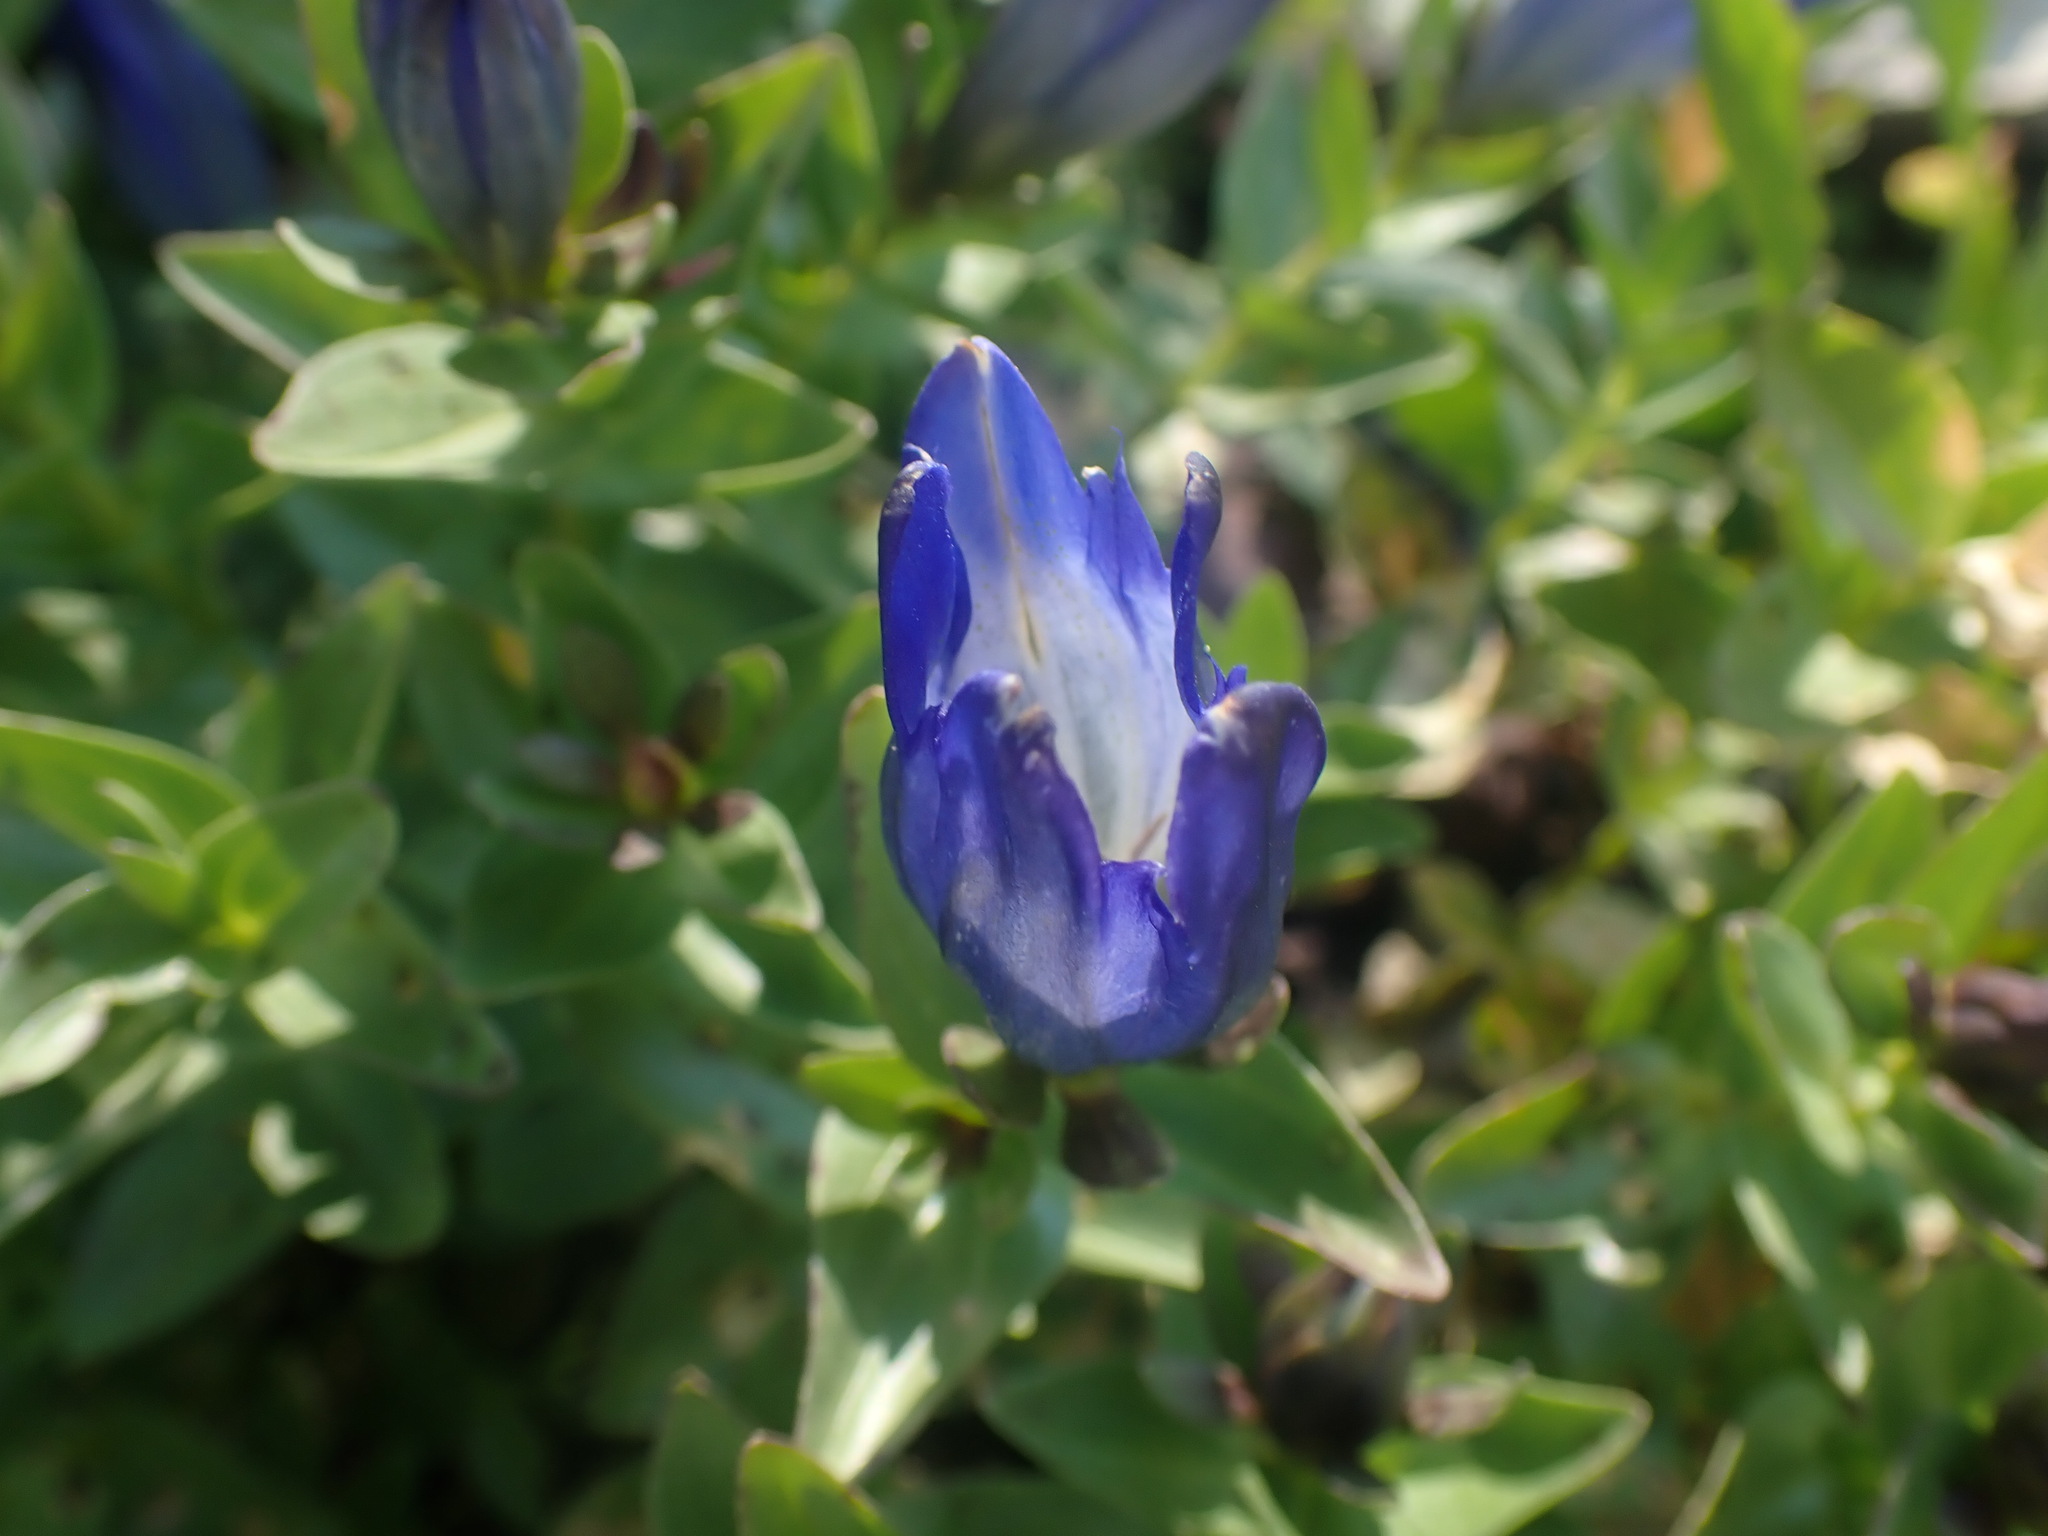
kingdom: Plantae
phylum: Tracheophyta
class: Magnoliopsida
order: Gentianales
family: Gentianaceae
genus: Gentiana
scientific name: Gentiana calycosa
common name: Rainier pleated gentian
